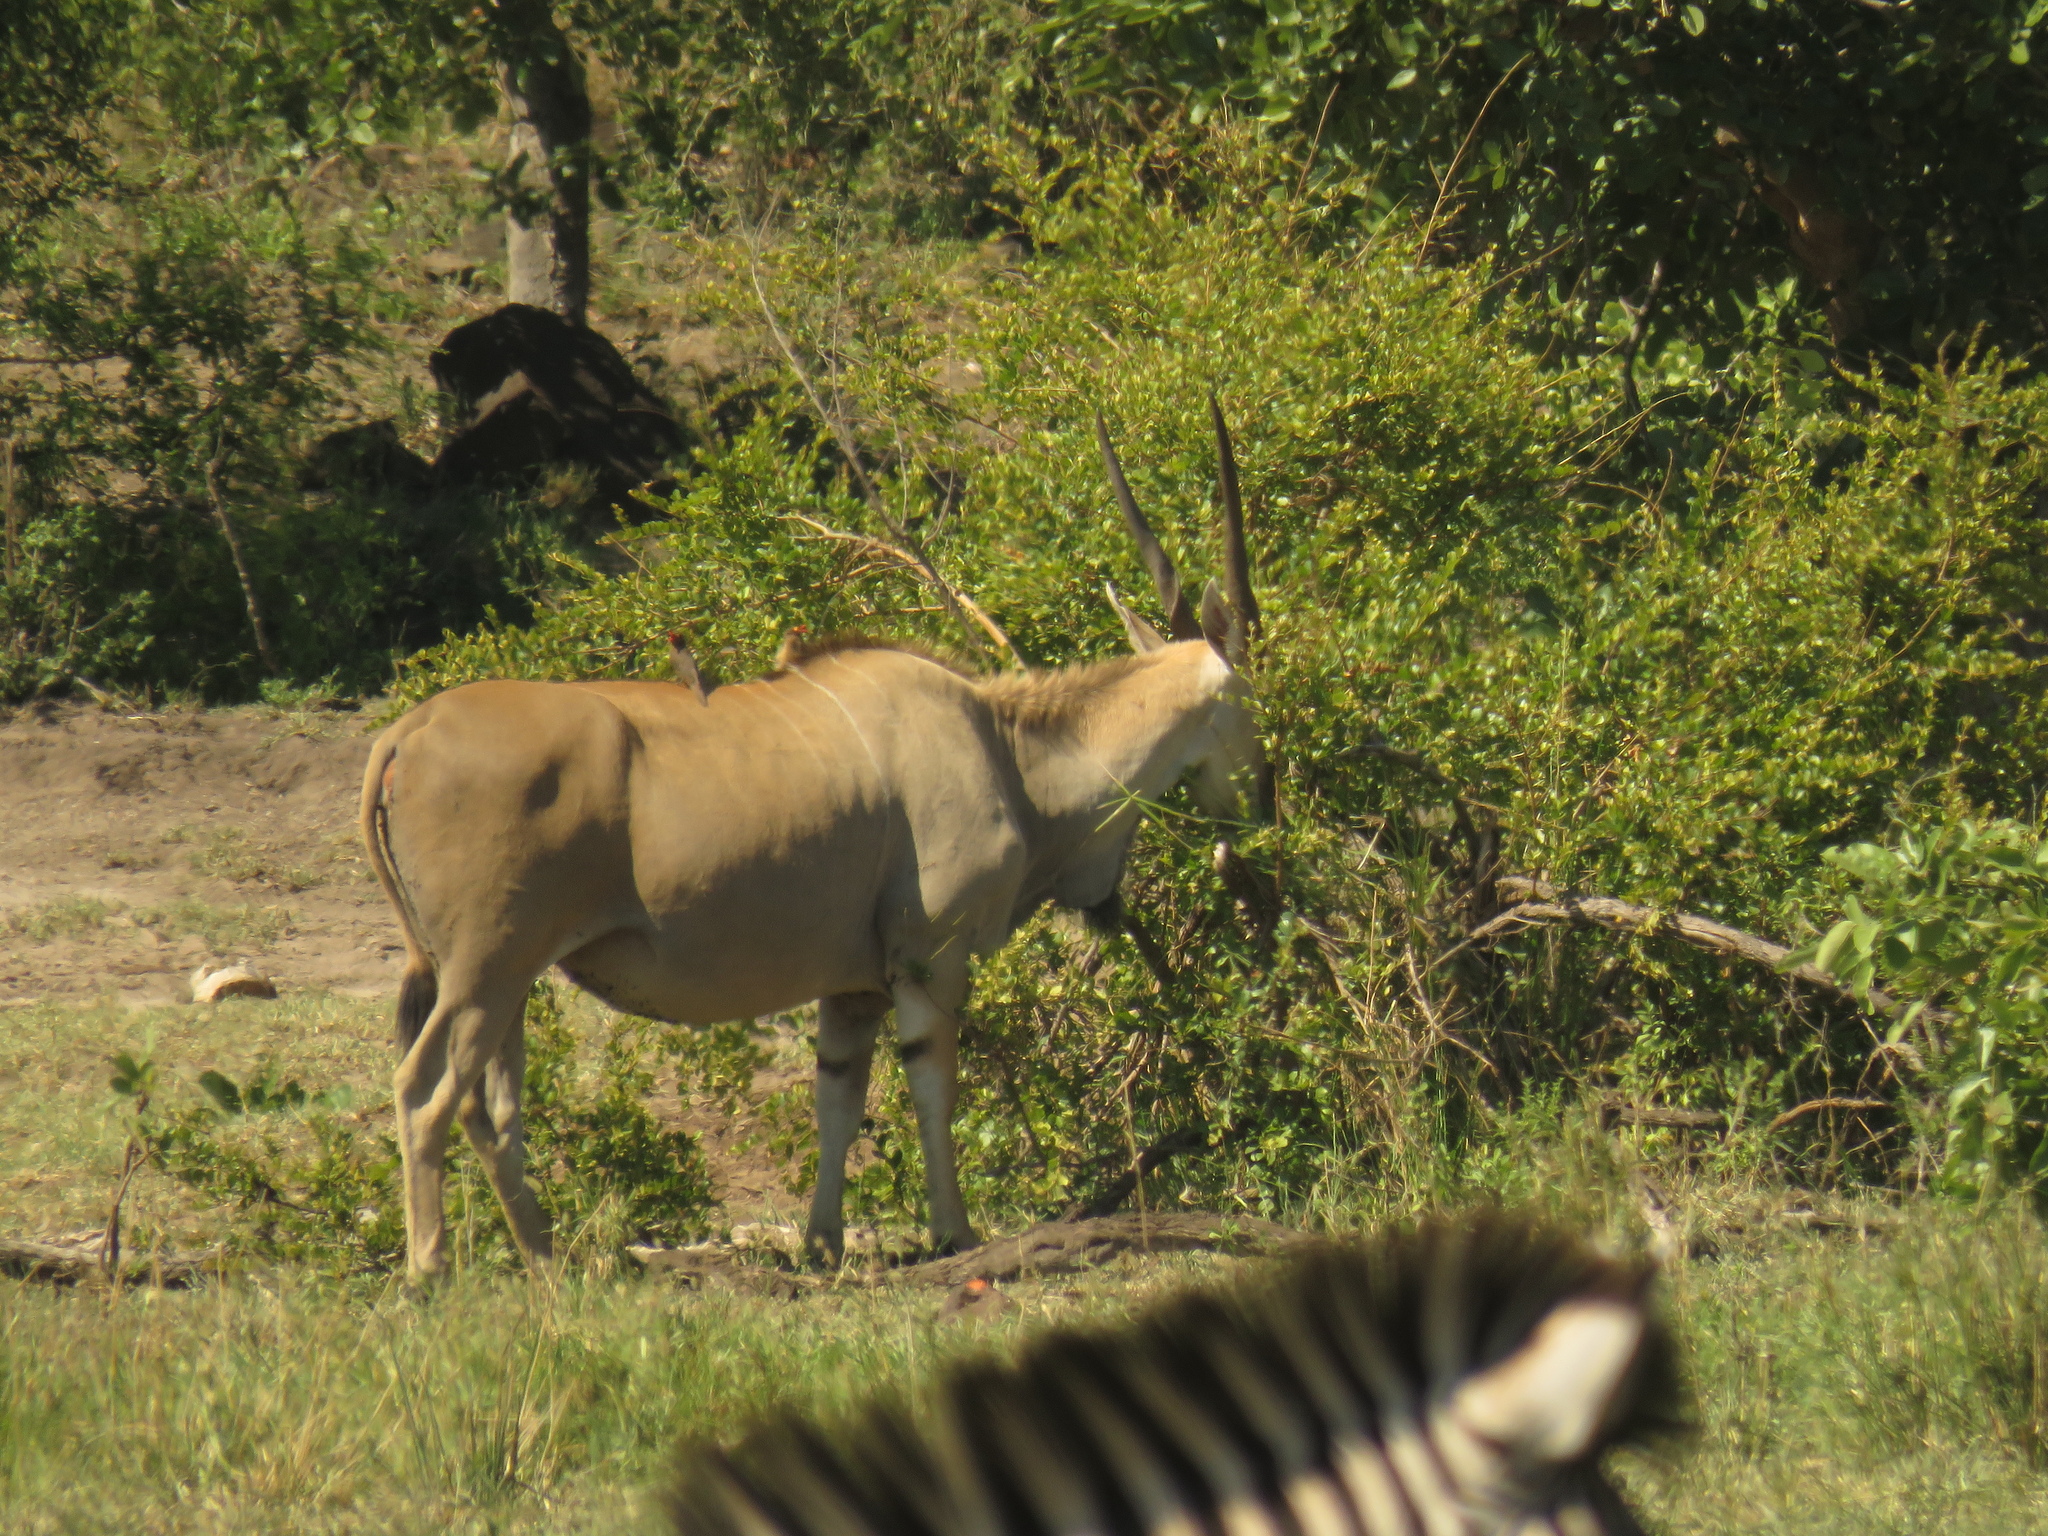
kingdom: Animalia
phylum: Chordata
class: Mammalia
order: Artiodactyla
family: Bovidae
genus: Taurotragus
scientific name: Taurotragus oryx
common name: Common eland
